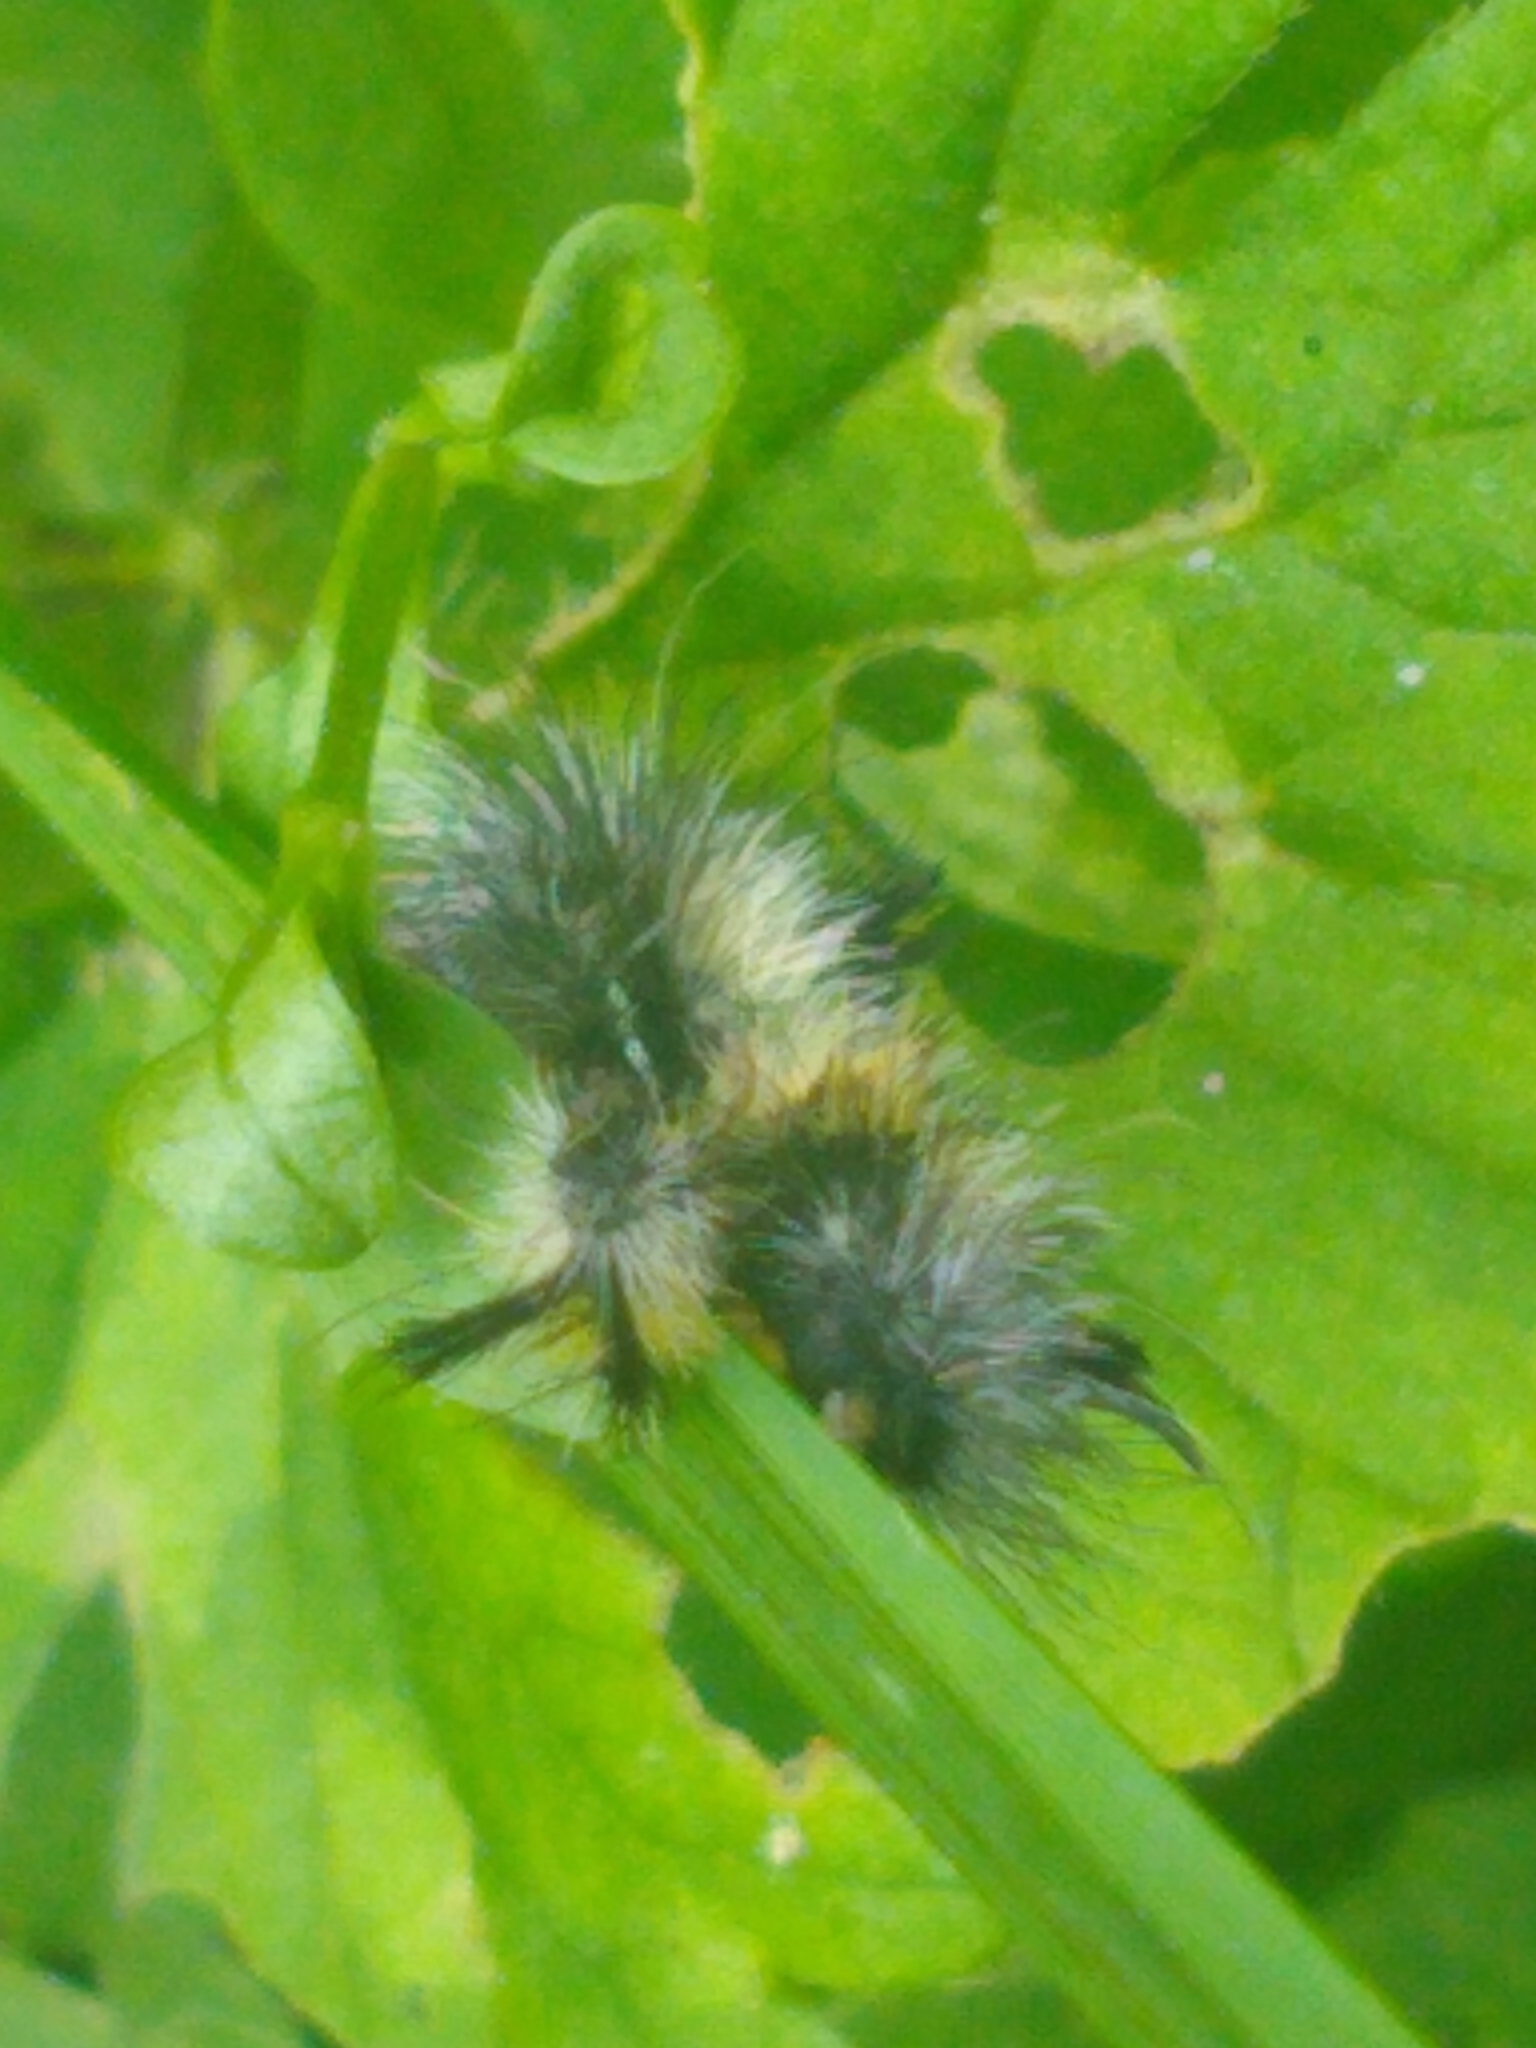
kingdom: Animalia
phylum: Arthropoda
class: Insecta
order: Lepidoptera
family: Erebidae
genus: Ctenucha
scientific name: Ctenucha virginica
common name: Virginia ctenucha moth
